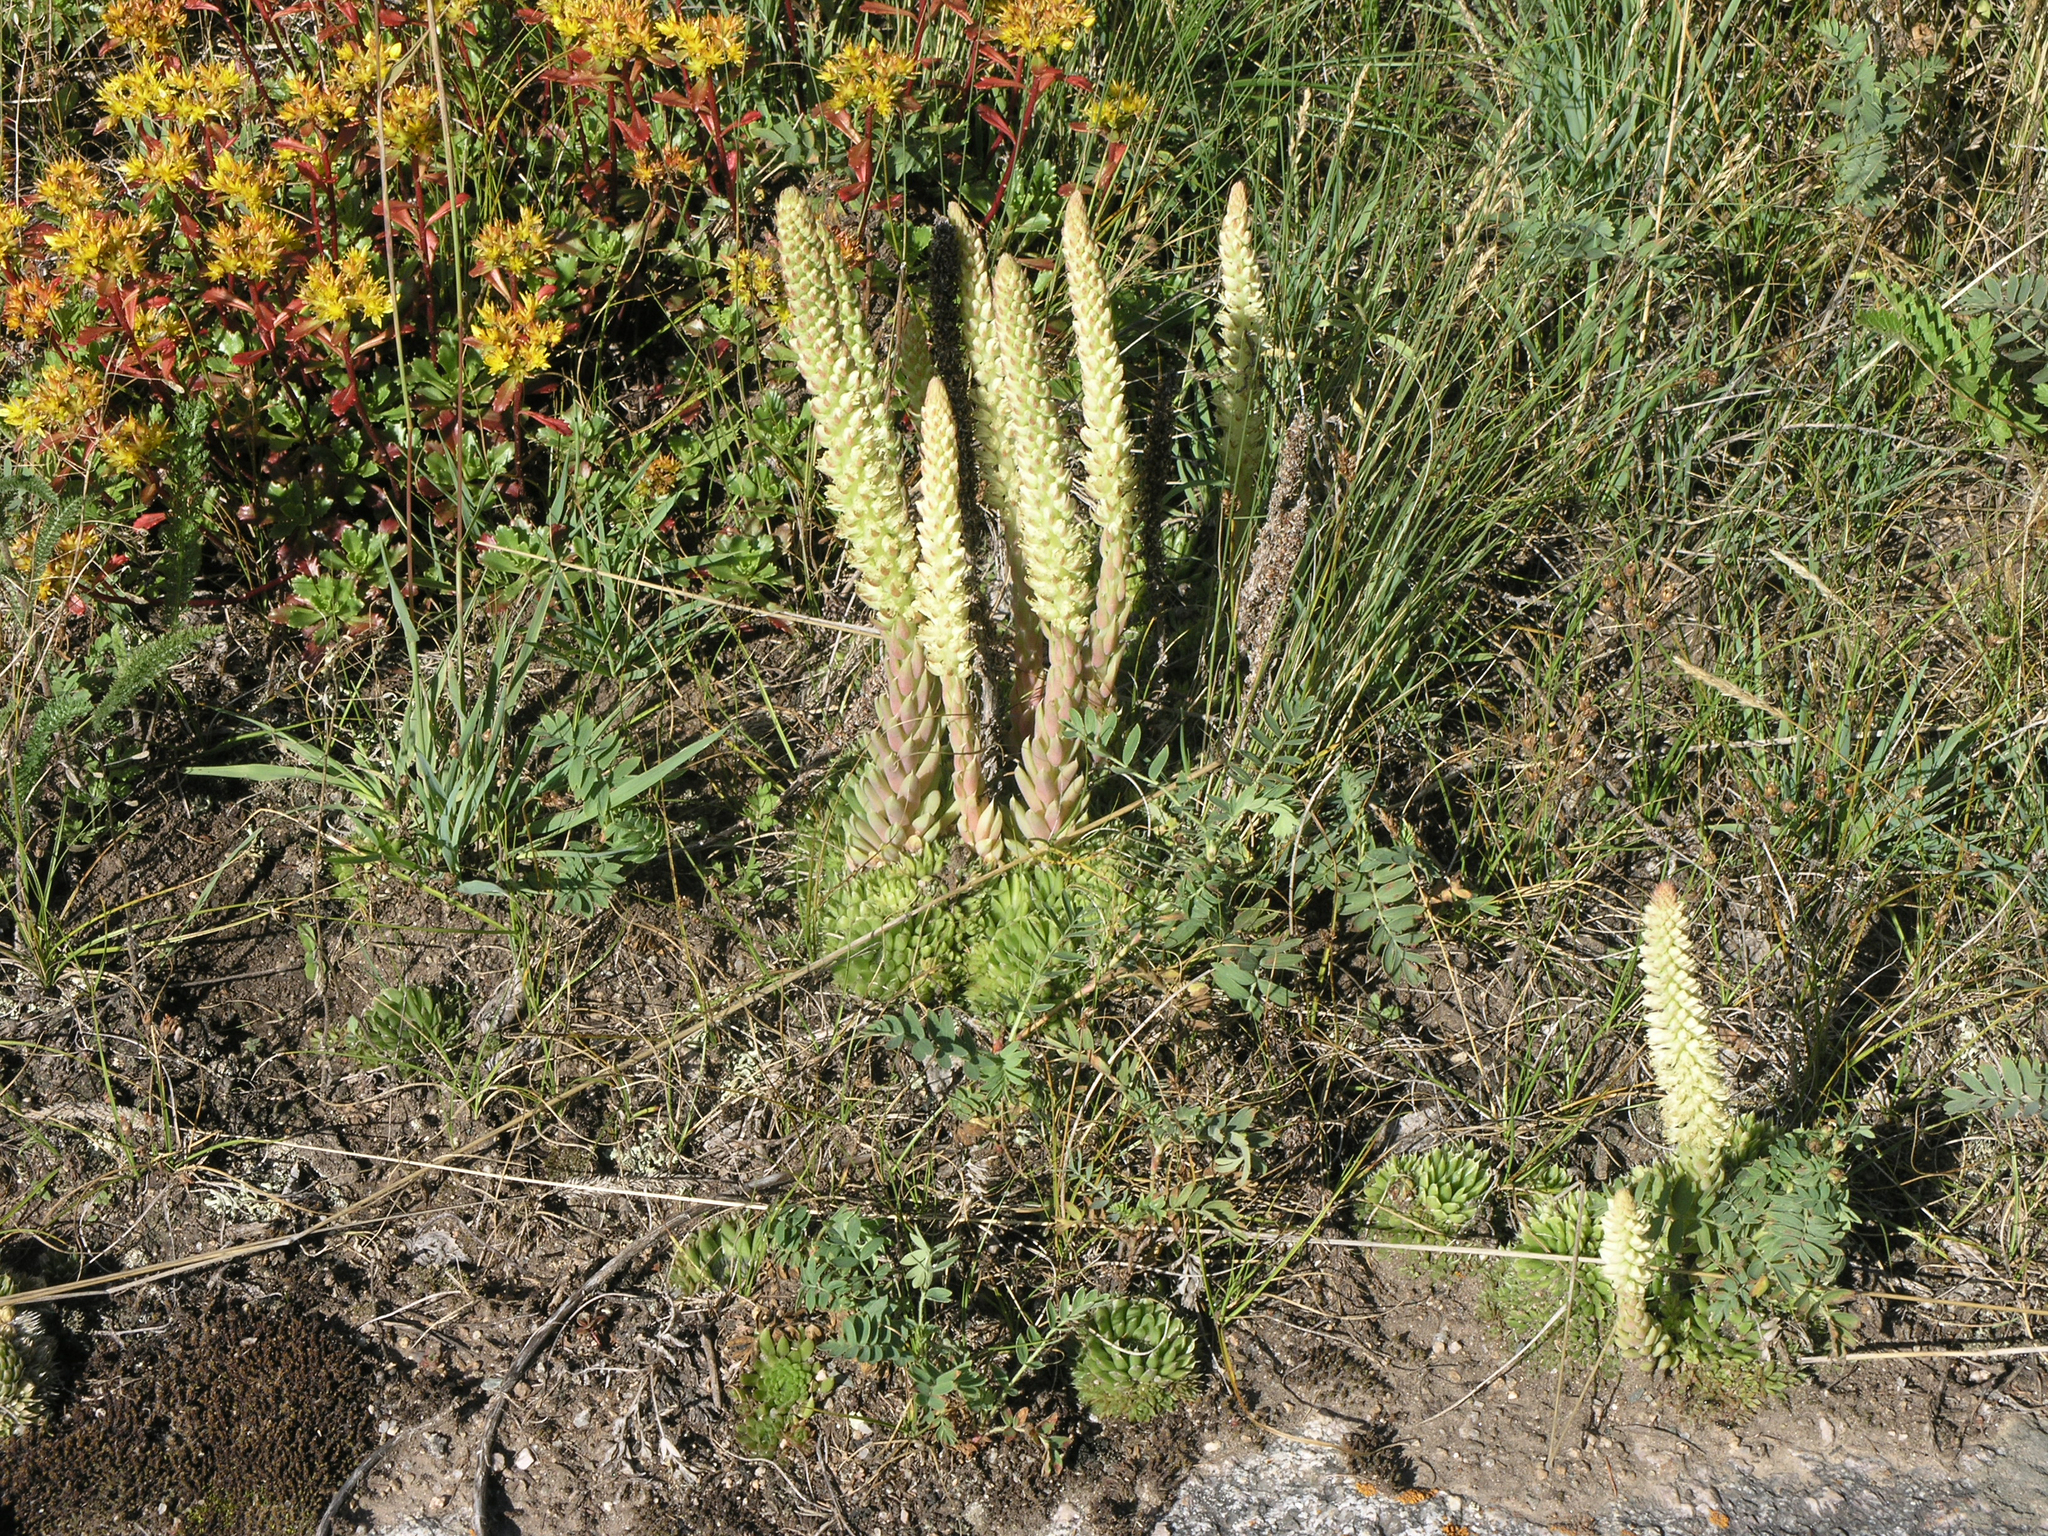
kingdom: Plantae
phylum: Tracheophyta
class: Magnoliopsida
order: Saxifragales
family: Crassulaceae
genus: Orostachys
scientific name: Orostachys spinosa
